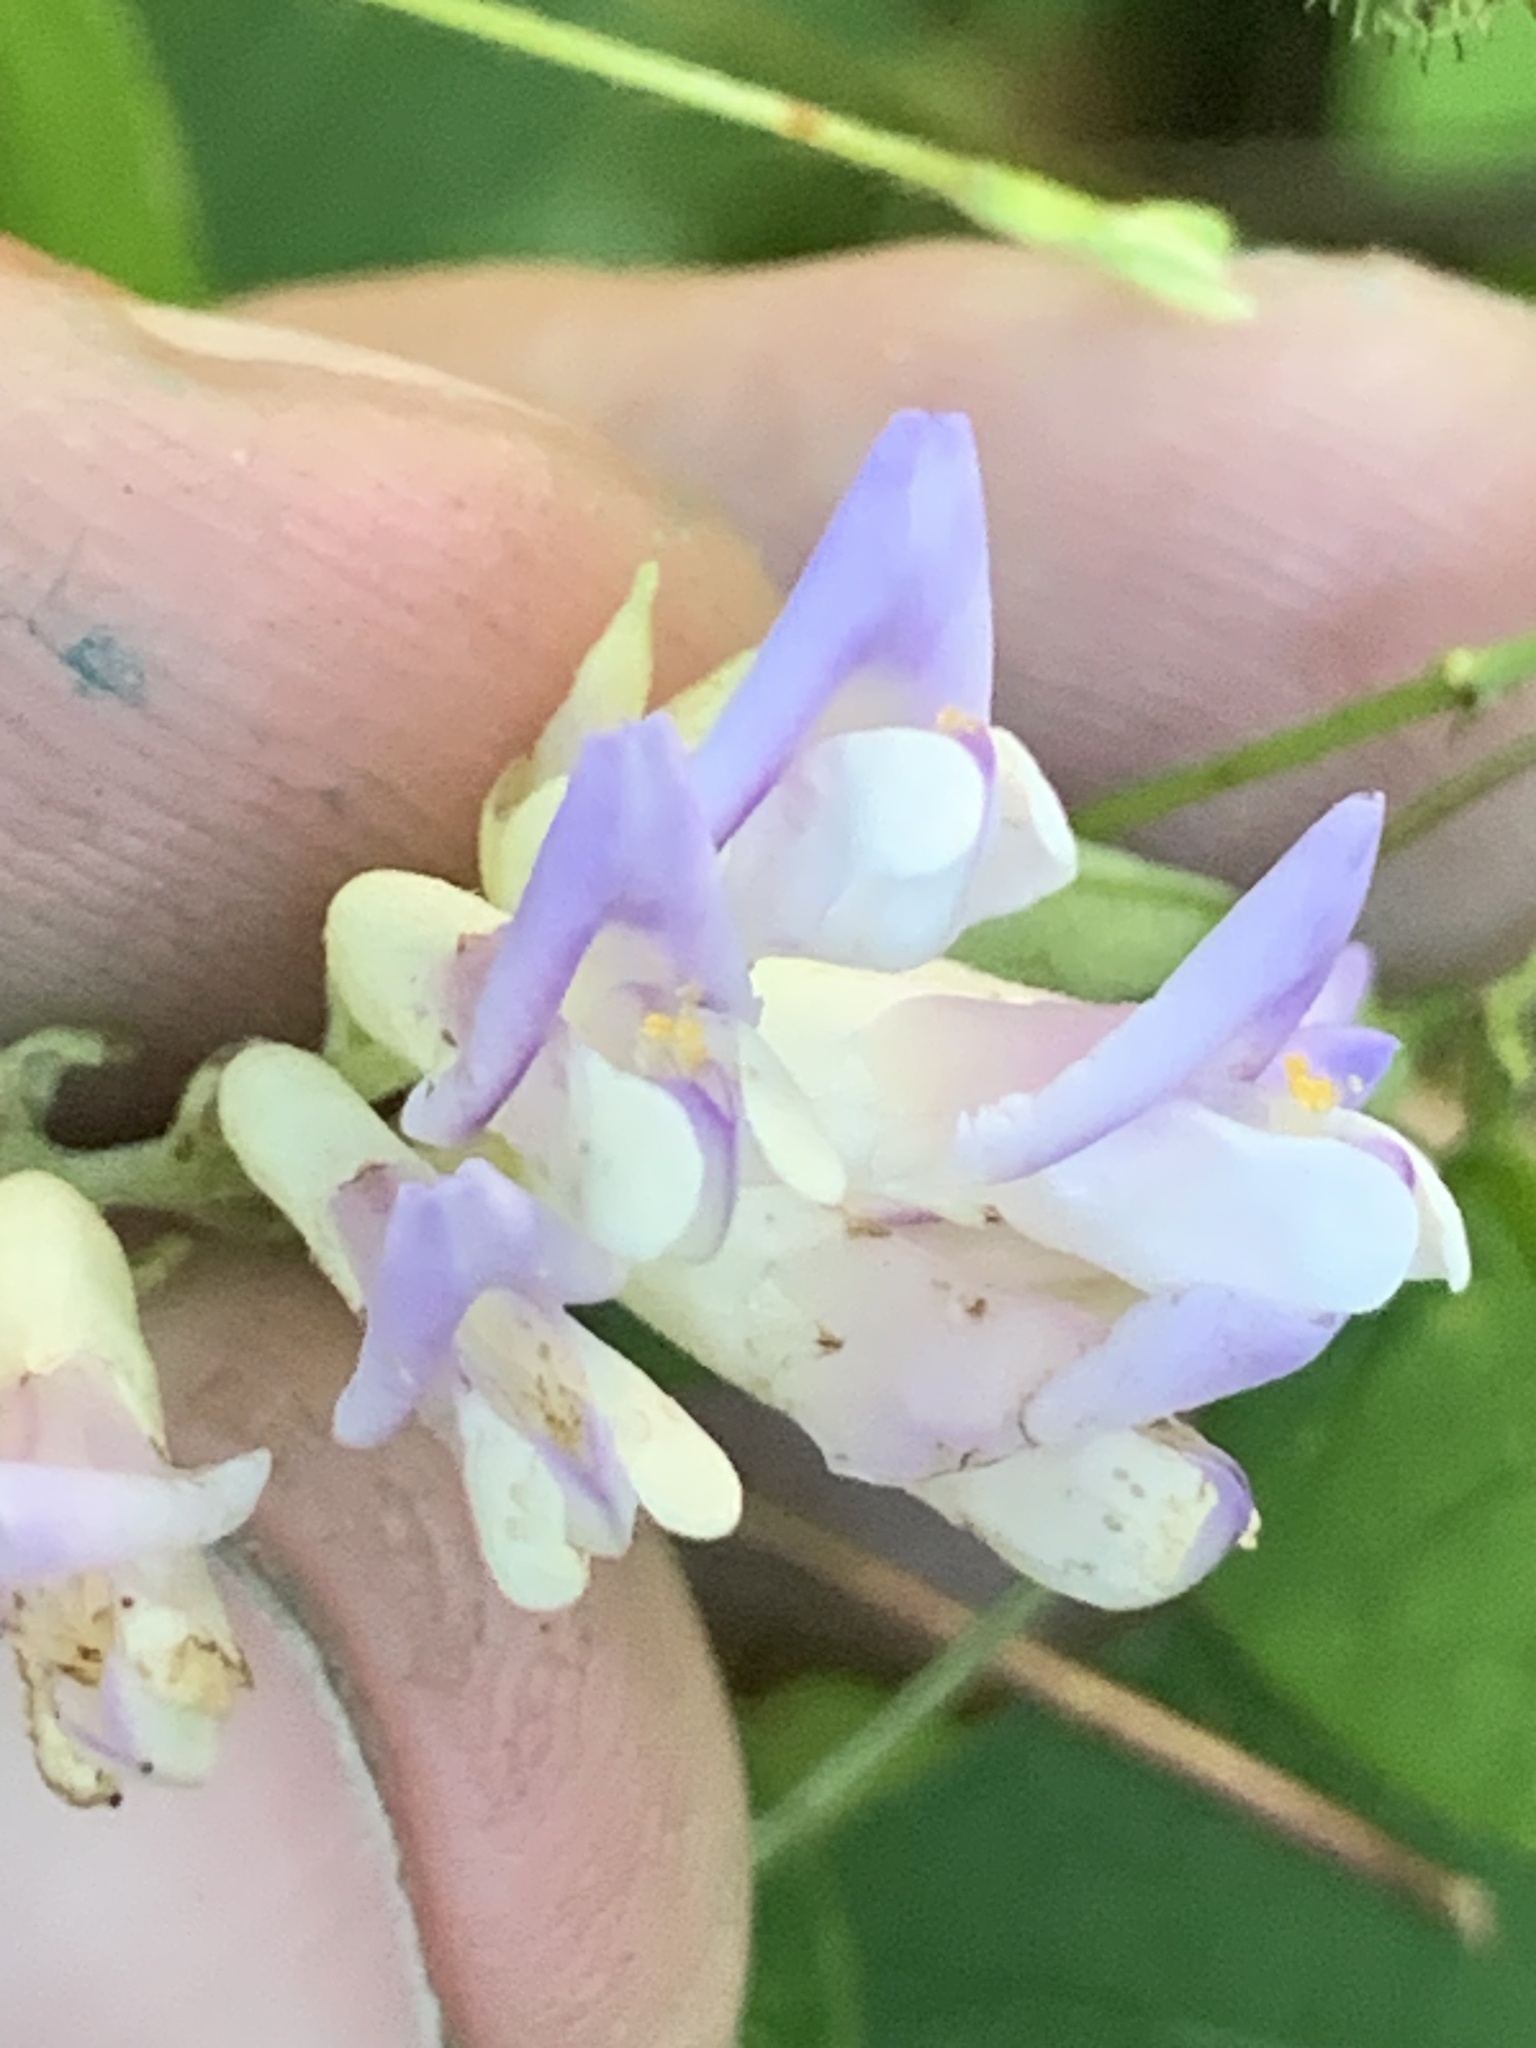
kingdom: Plantae
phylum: Tracheophyta
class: Magnoliopsida
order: Fabales
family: Fabaceae
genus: Amphicarpaea
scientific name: Amphicarpaea bracteata
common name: American hog peanut
